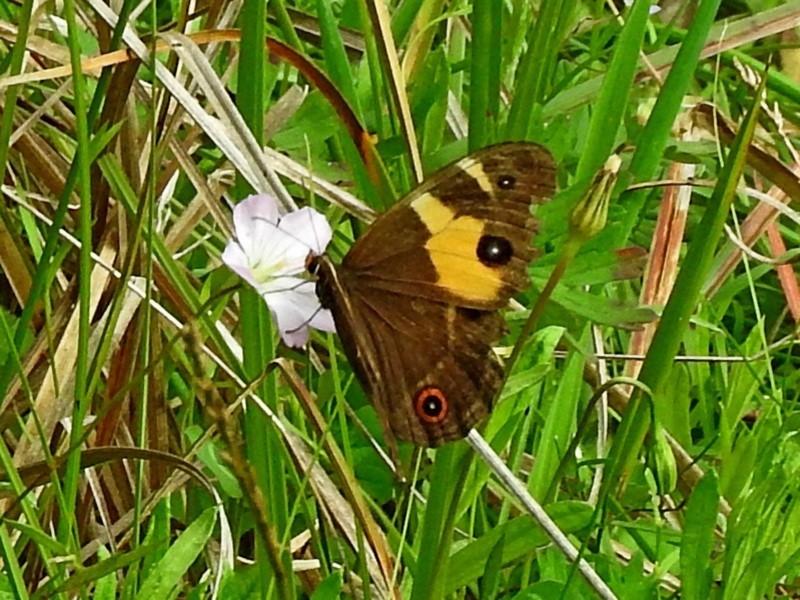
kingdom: Animalia
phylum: Arthropoda
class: Insecta
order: Lepidoptera
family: Nymphalidae
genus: Tisiphone
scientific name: Tisiphone abeona
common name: Swordgrass brown
